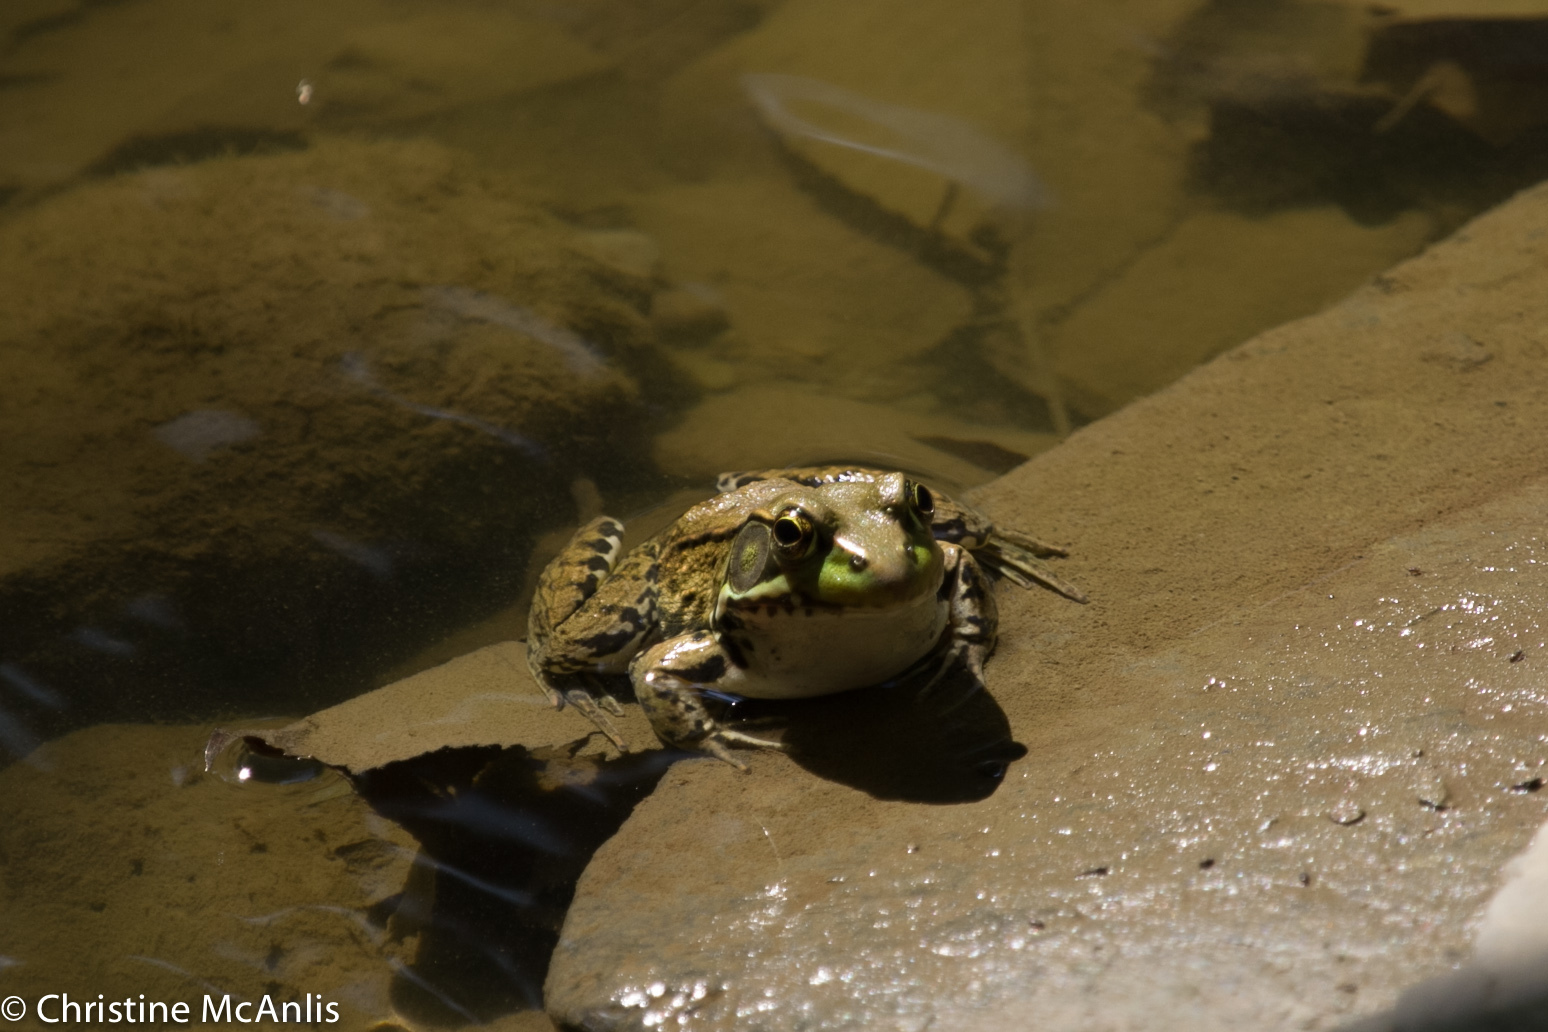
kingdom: Animalia
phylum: Chordata
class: Amphibia
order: Anura
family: Ranidae
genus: Lithobates
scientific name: Lithobates clamitans
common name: Green frog
